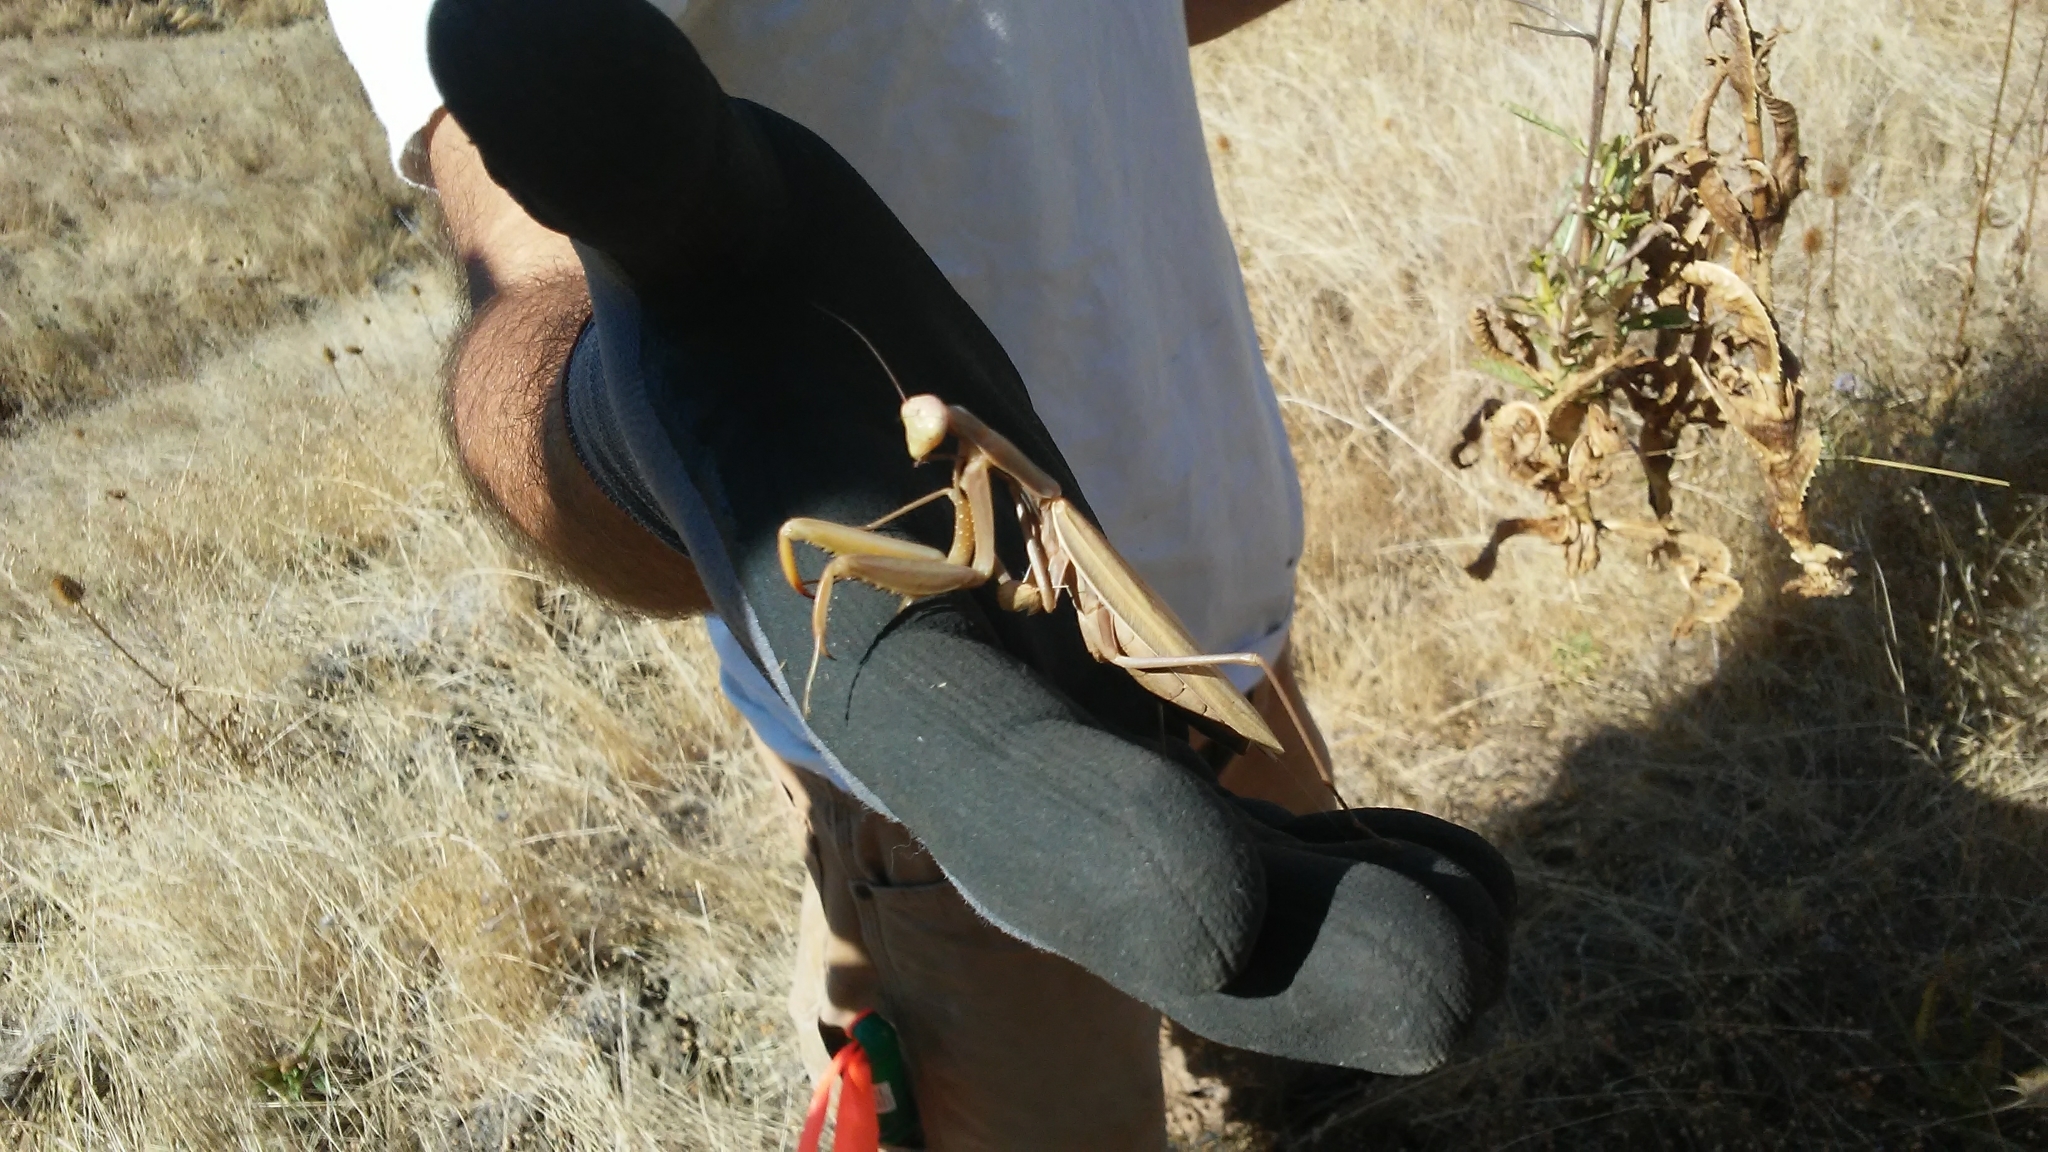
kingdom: Animalia
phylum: Arthropoda
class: Insecta
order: Mantodea
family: Mantidae
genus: Mantis
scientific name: Mantis religiosa
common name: Praying mantis
